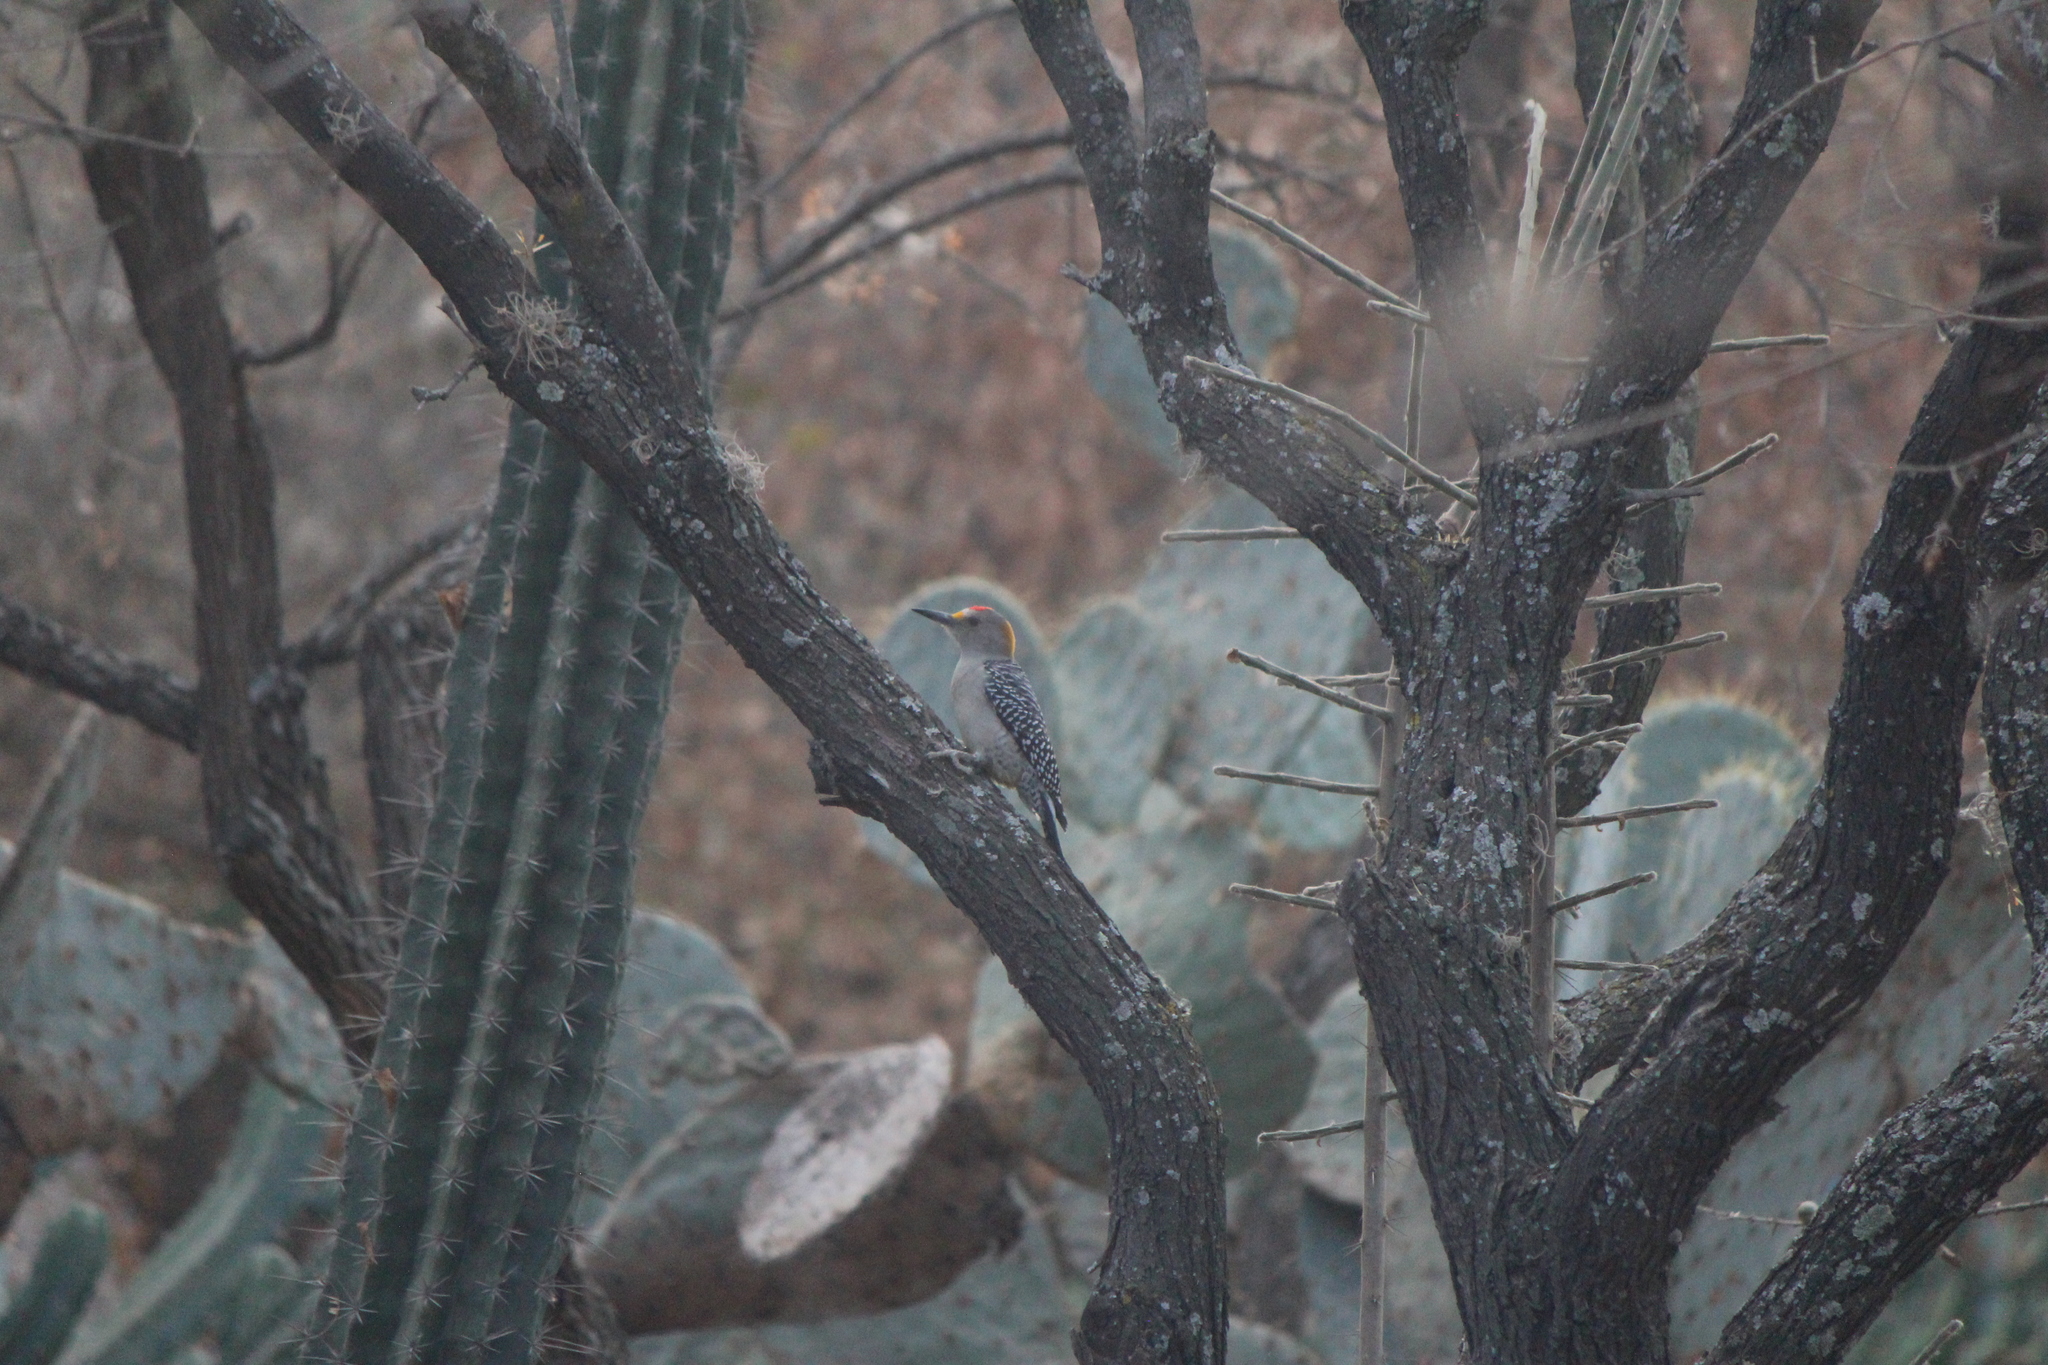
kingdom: Animalia
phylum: Chordata
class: Aves
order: Piciformes
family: Picidae
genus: Melanerpes
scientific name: Melanerpes aurifrons
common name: Golden-fronted woodpecker
